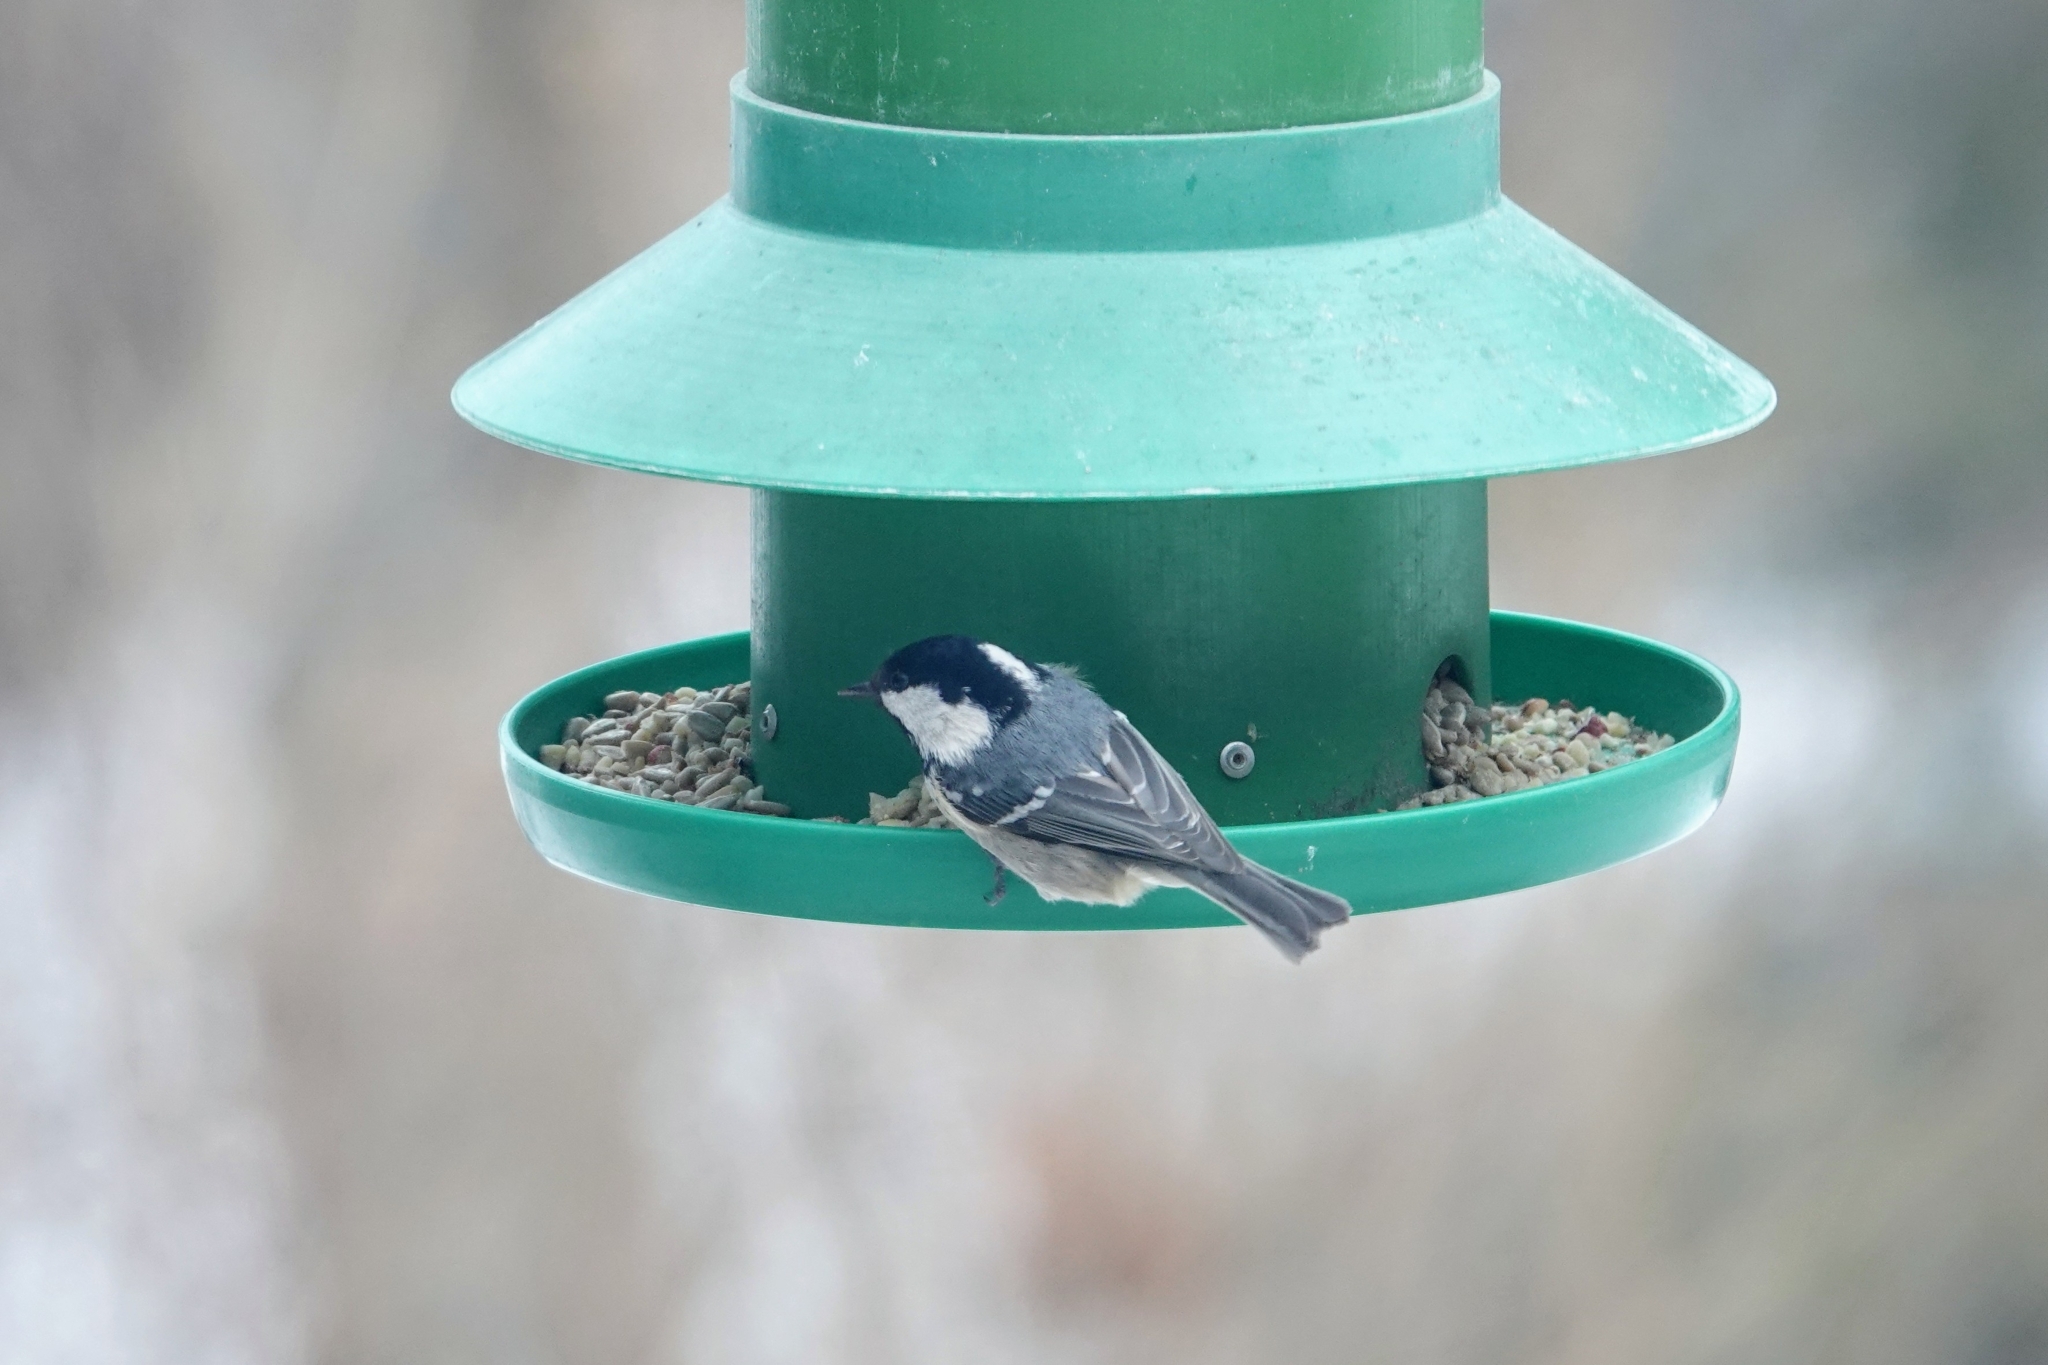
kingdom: Animalia
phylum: Chordata
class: Aves
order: Passeriformes
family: Paridae
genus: Periparus
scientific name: Periparus ater
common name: Coal tit
